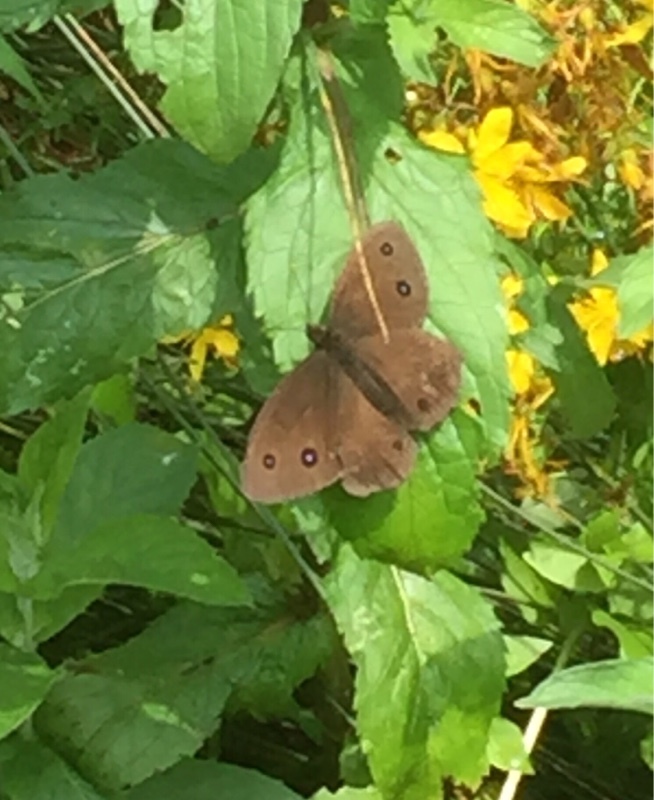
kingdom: Animalia
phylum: Arthropoda
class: Insecta
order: Lepidoptera
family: Nymphalidae
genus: Minois
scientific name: Minois dryas
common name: Dryad
